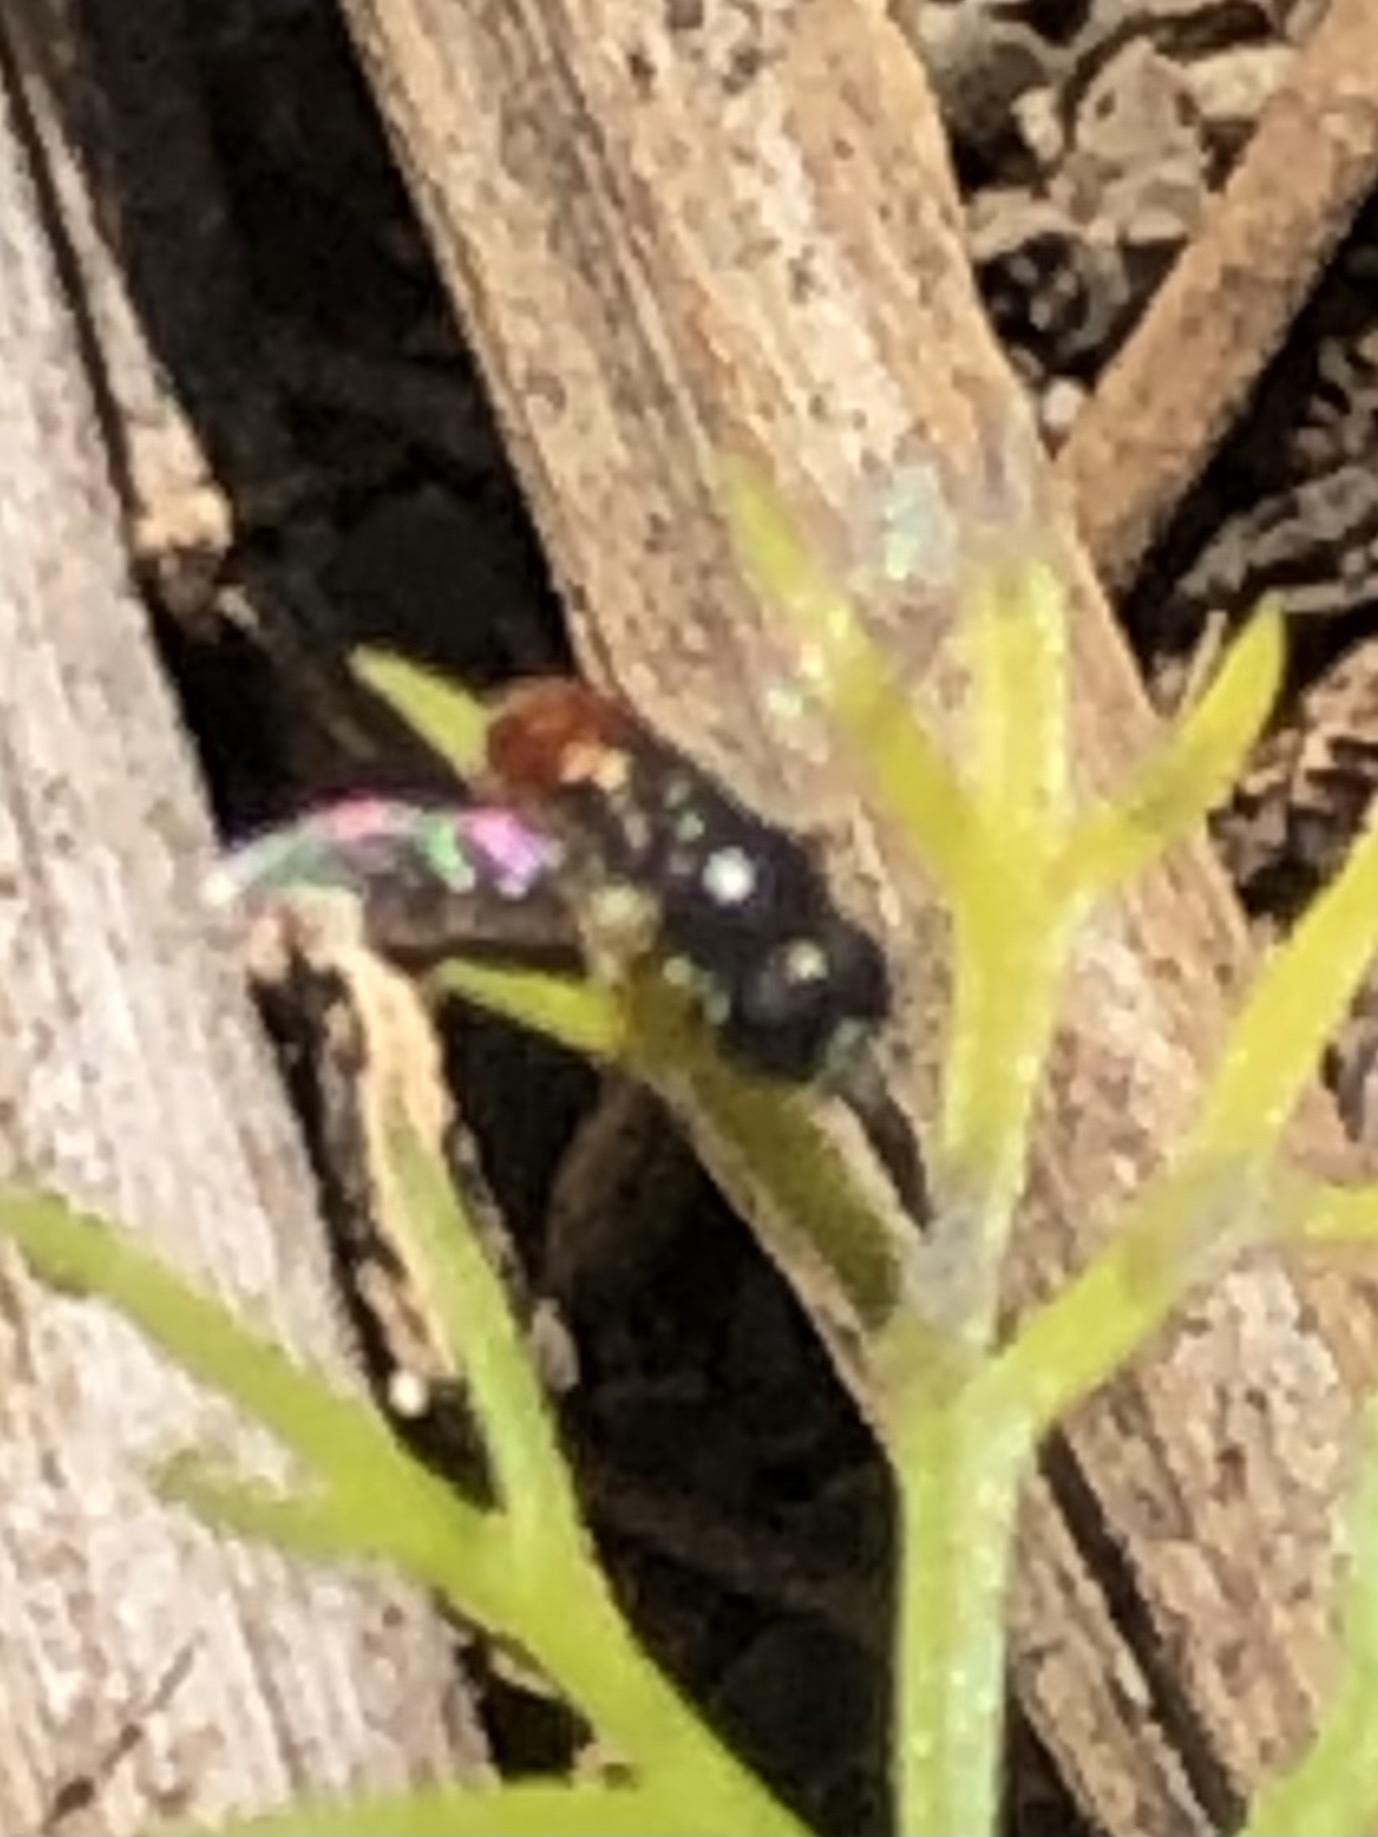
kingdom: Animalia
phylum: Arthropoda
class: Insecta
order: Diptera
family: Syrphidae
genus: Paragus
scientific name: Paragus haemorrhous
